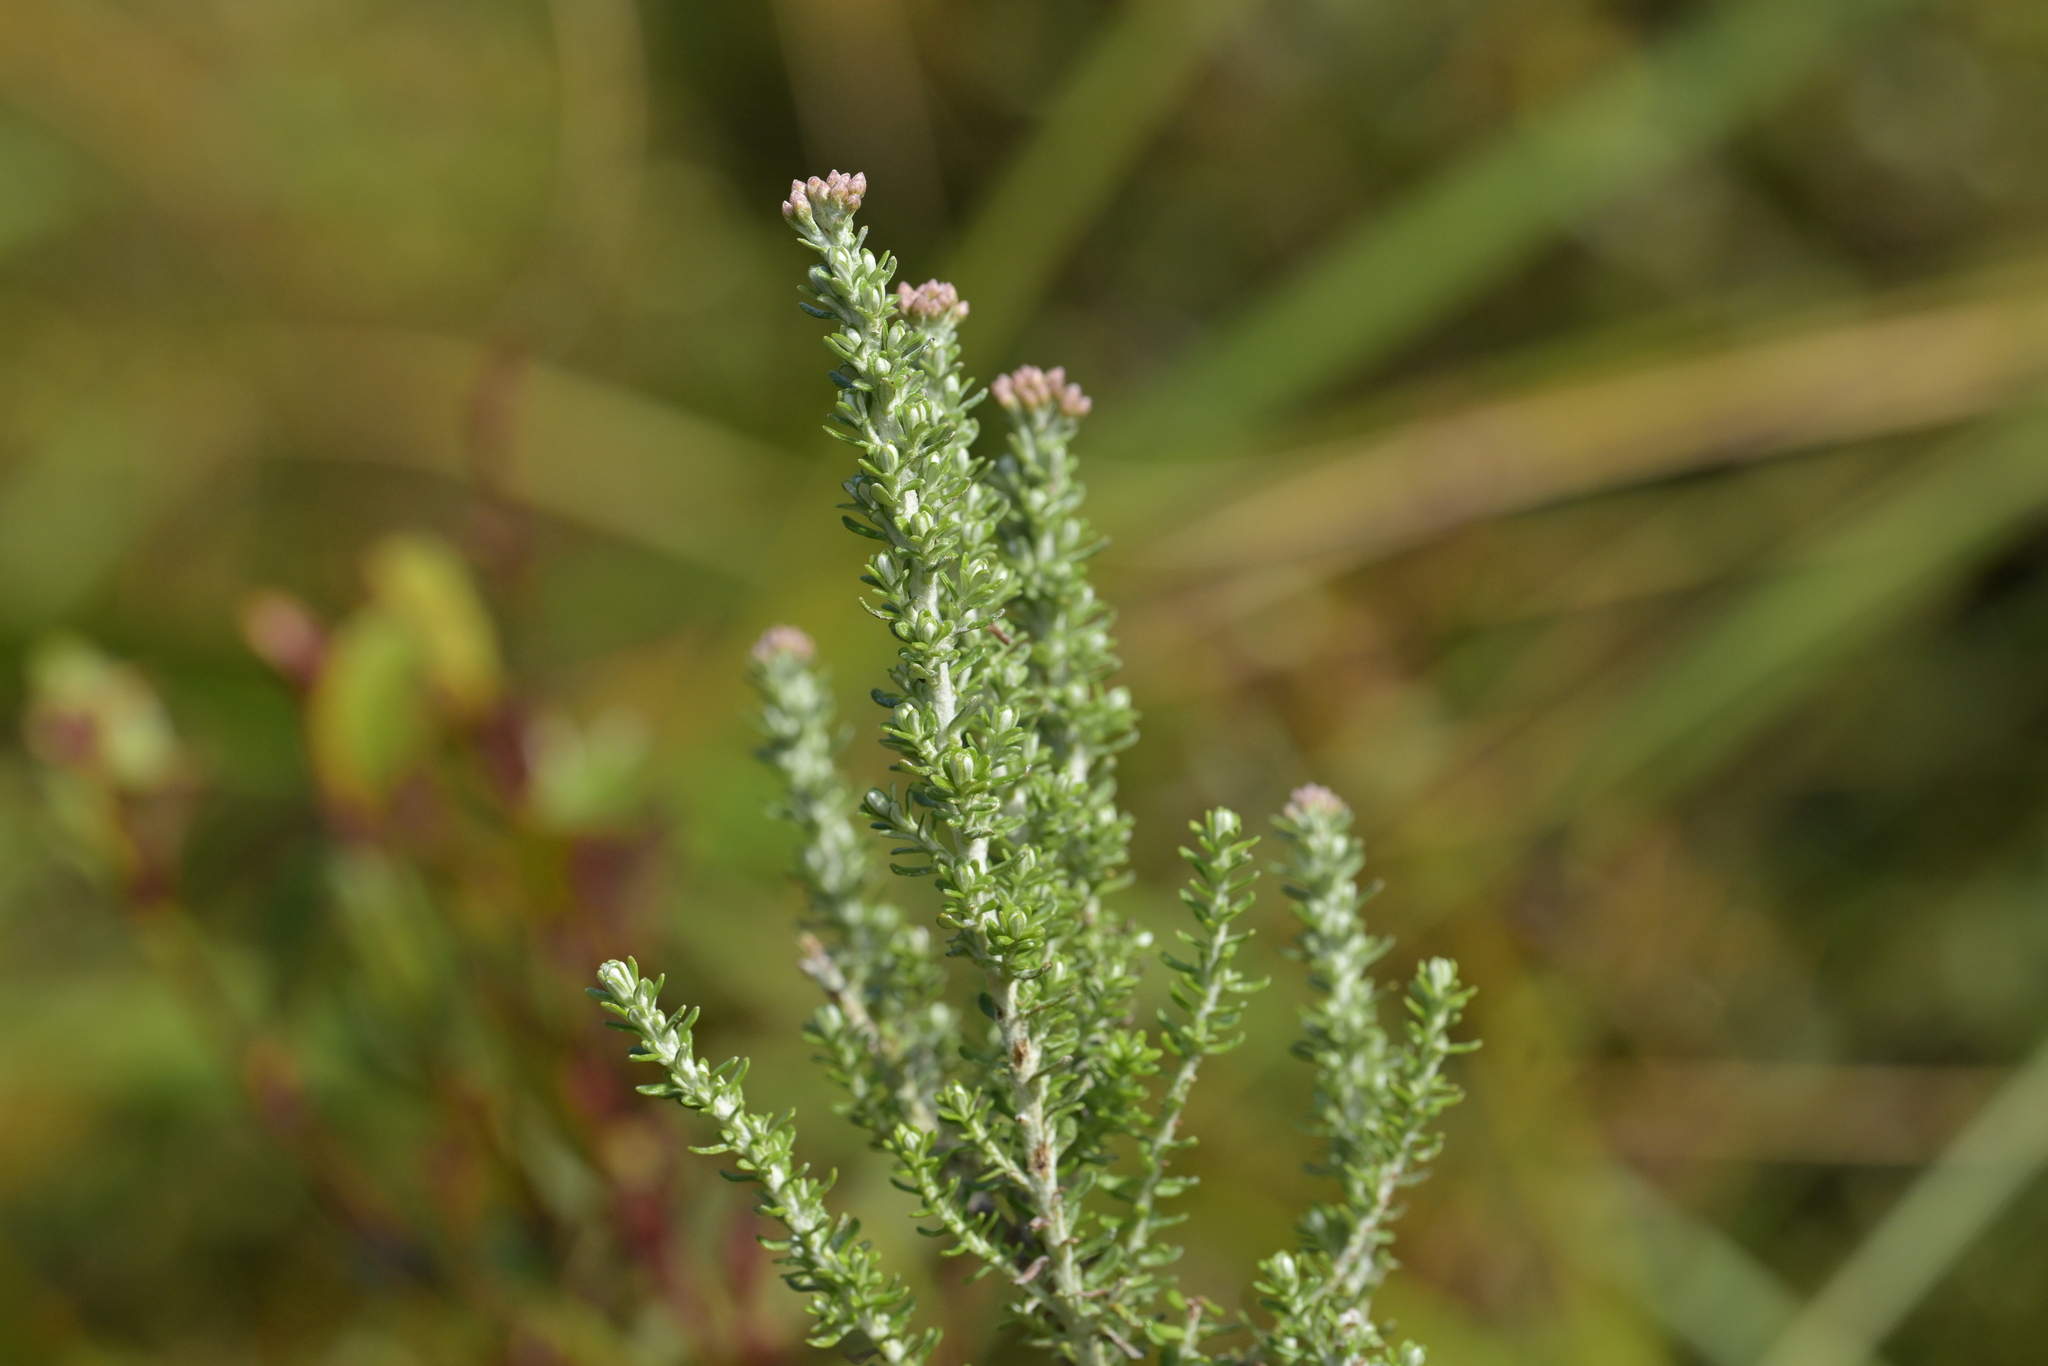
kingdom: Plantae
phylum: Tracheophyta
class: Magnoliopsida
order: Asterales
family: Asteraceae
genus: Ozothamnus
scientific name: Ozothamnus leptophyllus
